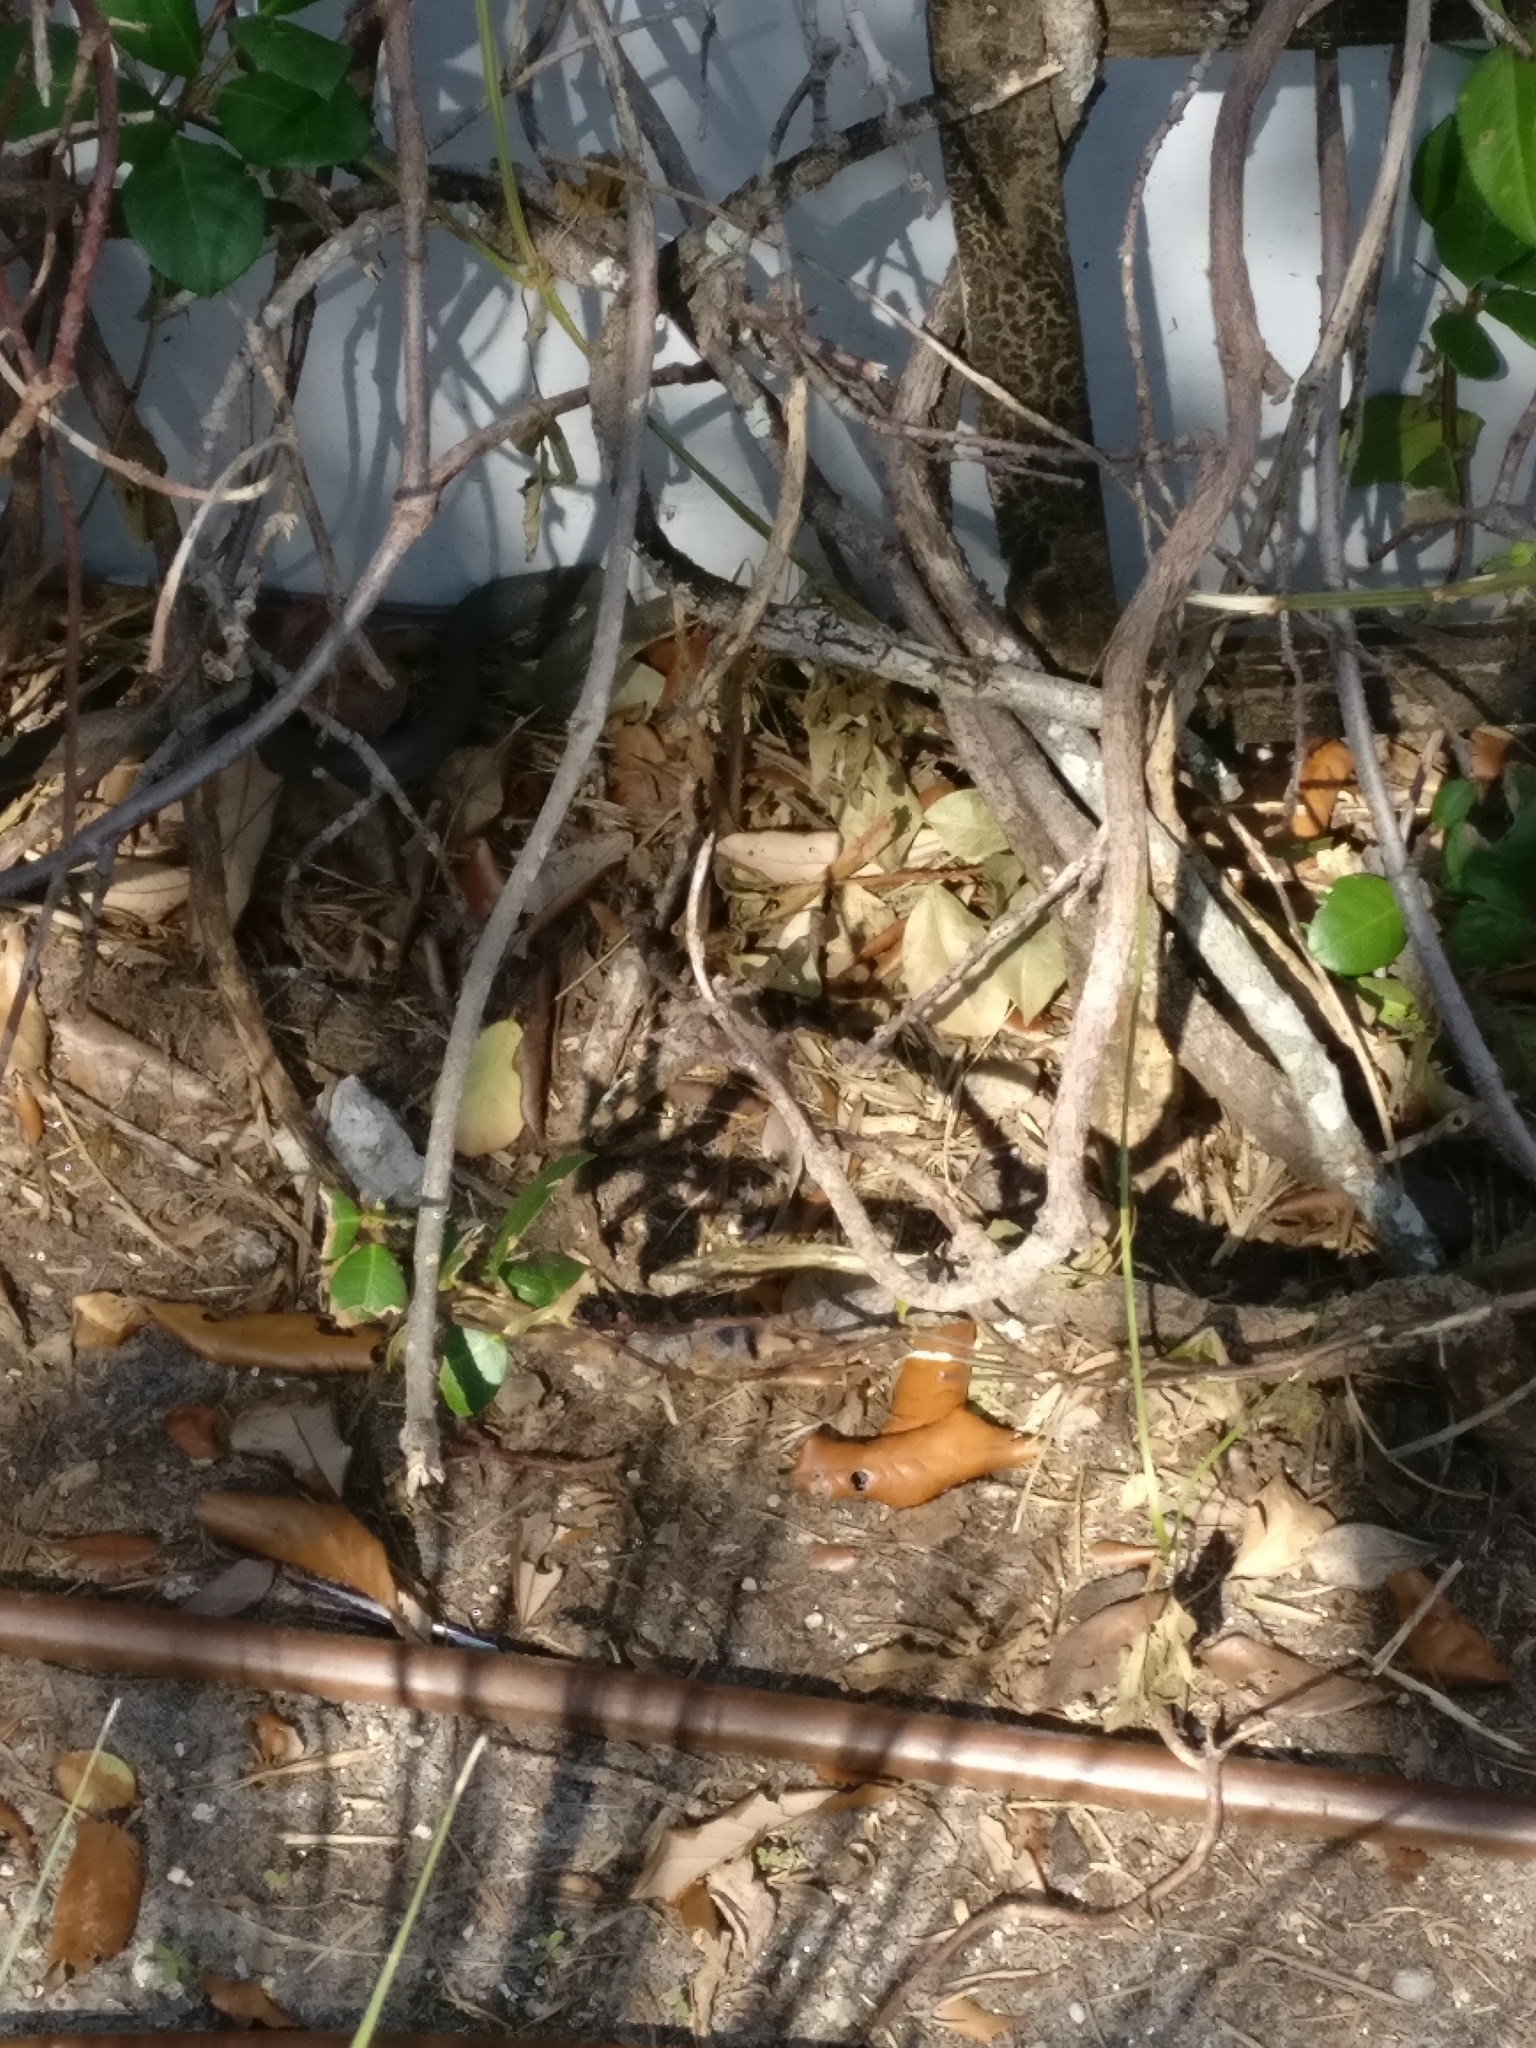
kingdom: Animalia
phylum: Chordata
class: Squamata
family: Colubridae
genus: Coluber
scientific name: Coluber constrictor
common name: Eastern racer
